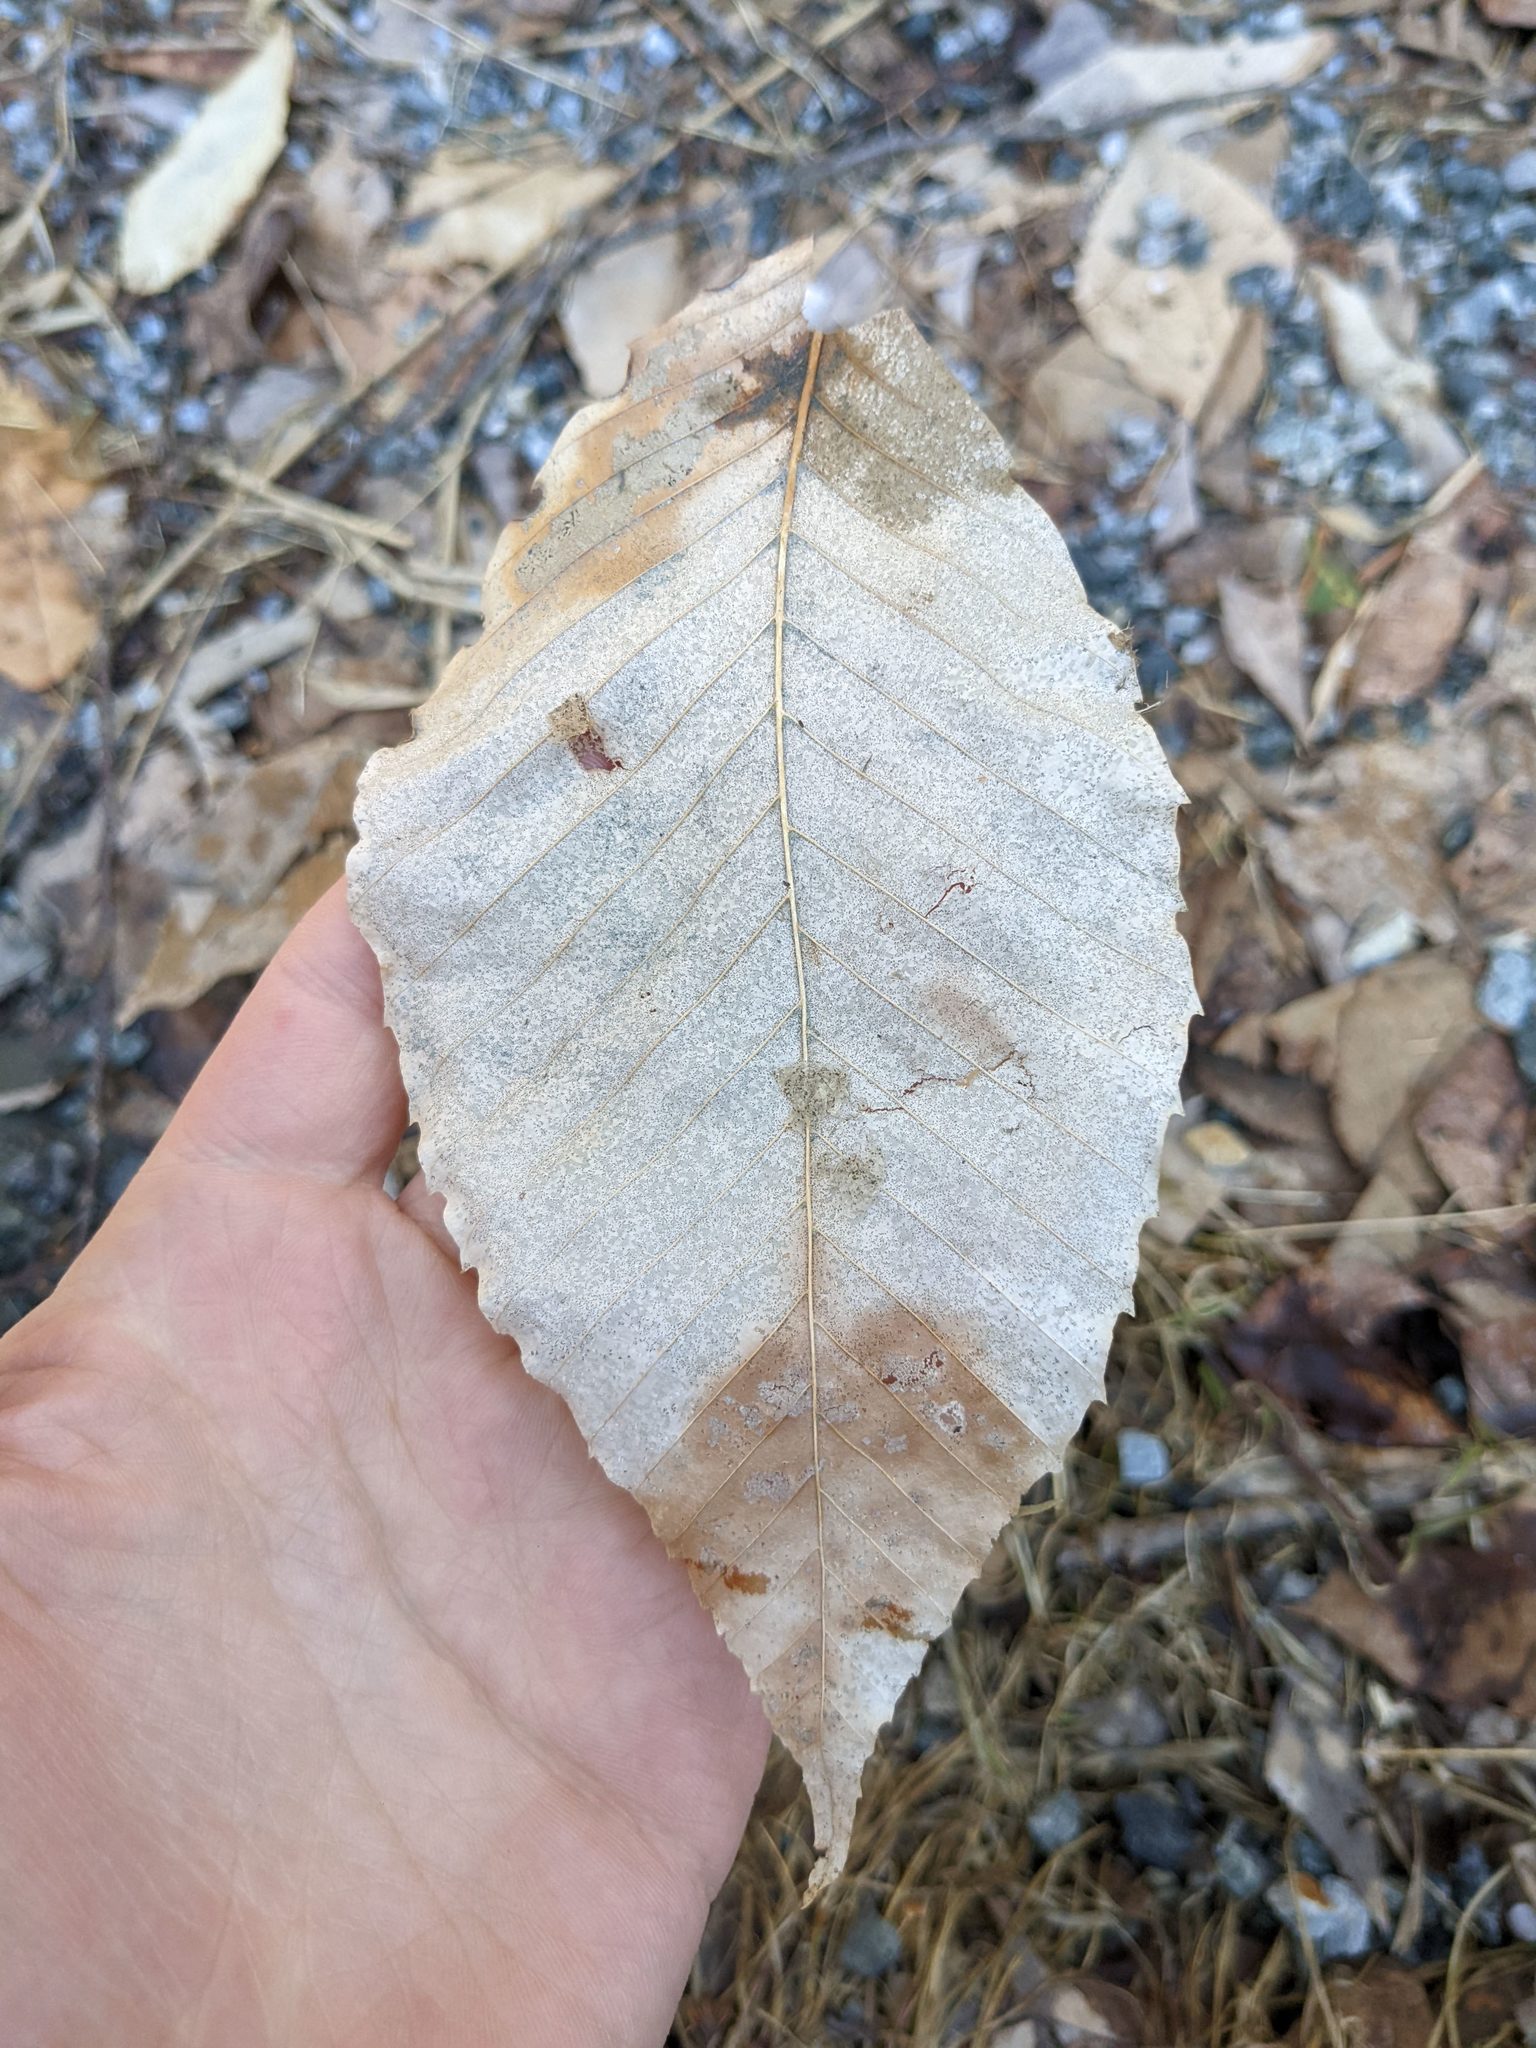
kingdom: Plantae
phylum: Tracheophyta
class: Magnoliopsida
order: Fagales
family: Fagaceae
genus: Fagus
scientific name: Fagus grandifolia
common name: American beech
